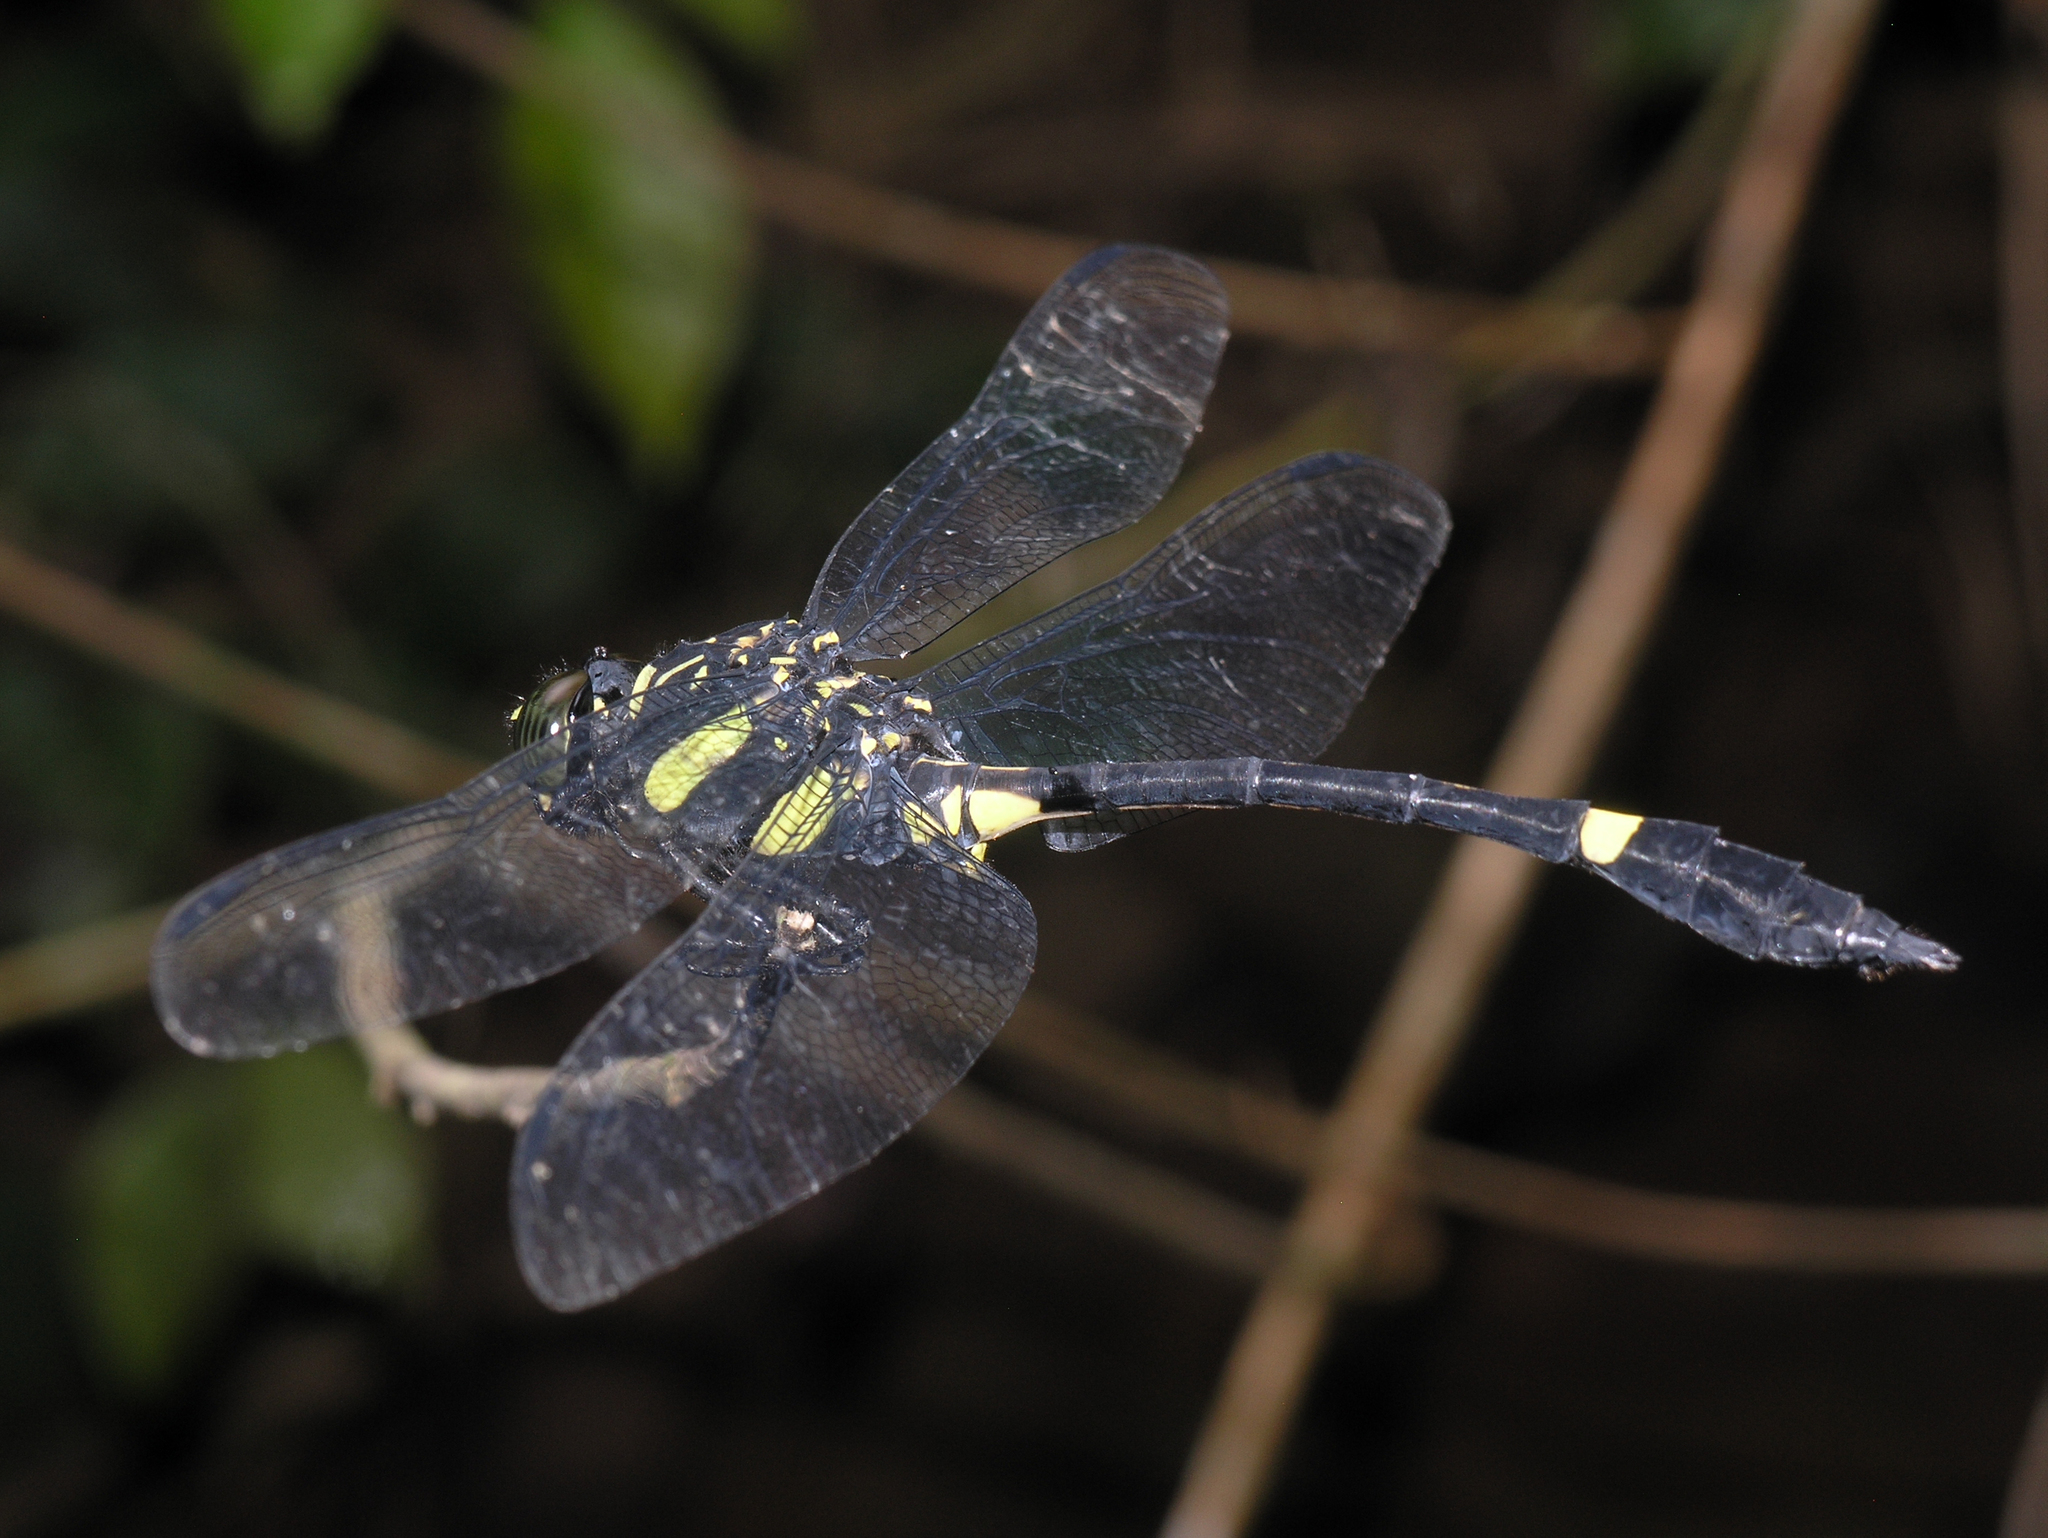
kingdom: Animalia
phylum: Arthropoda
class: Insecta
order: Odonata
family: Gomphidae
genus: Gomphidictinus
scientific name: Gomphidictinus perakensis
